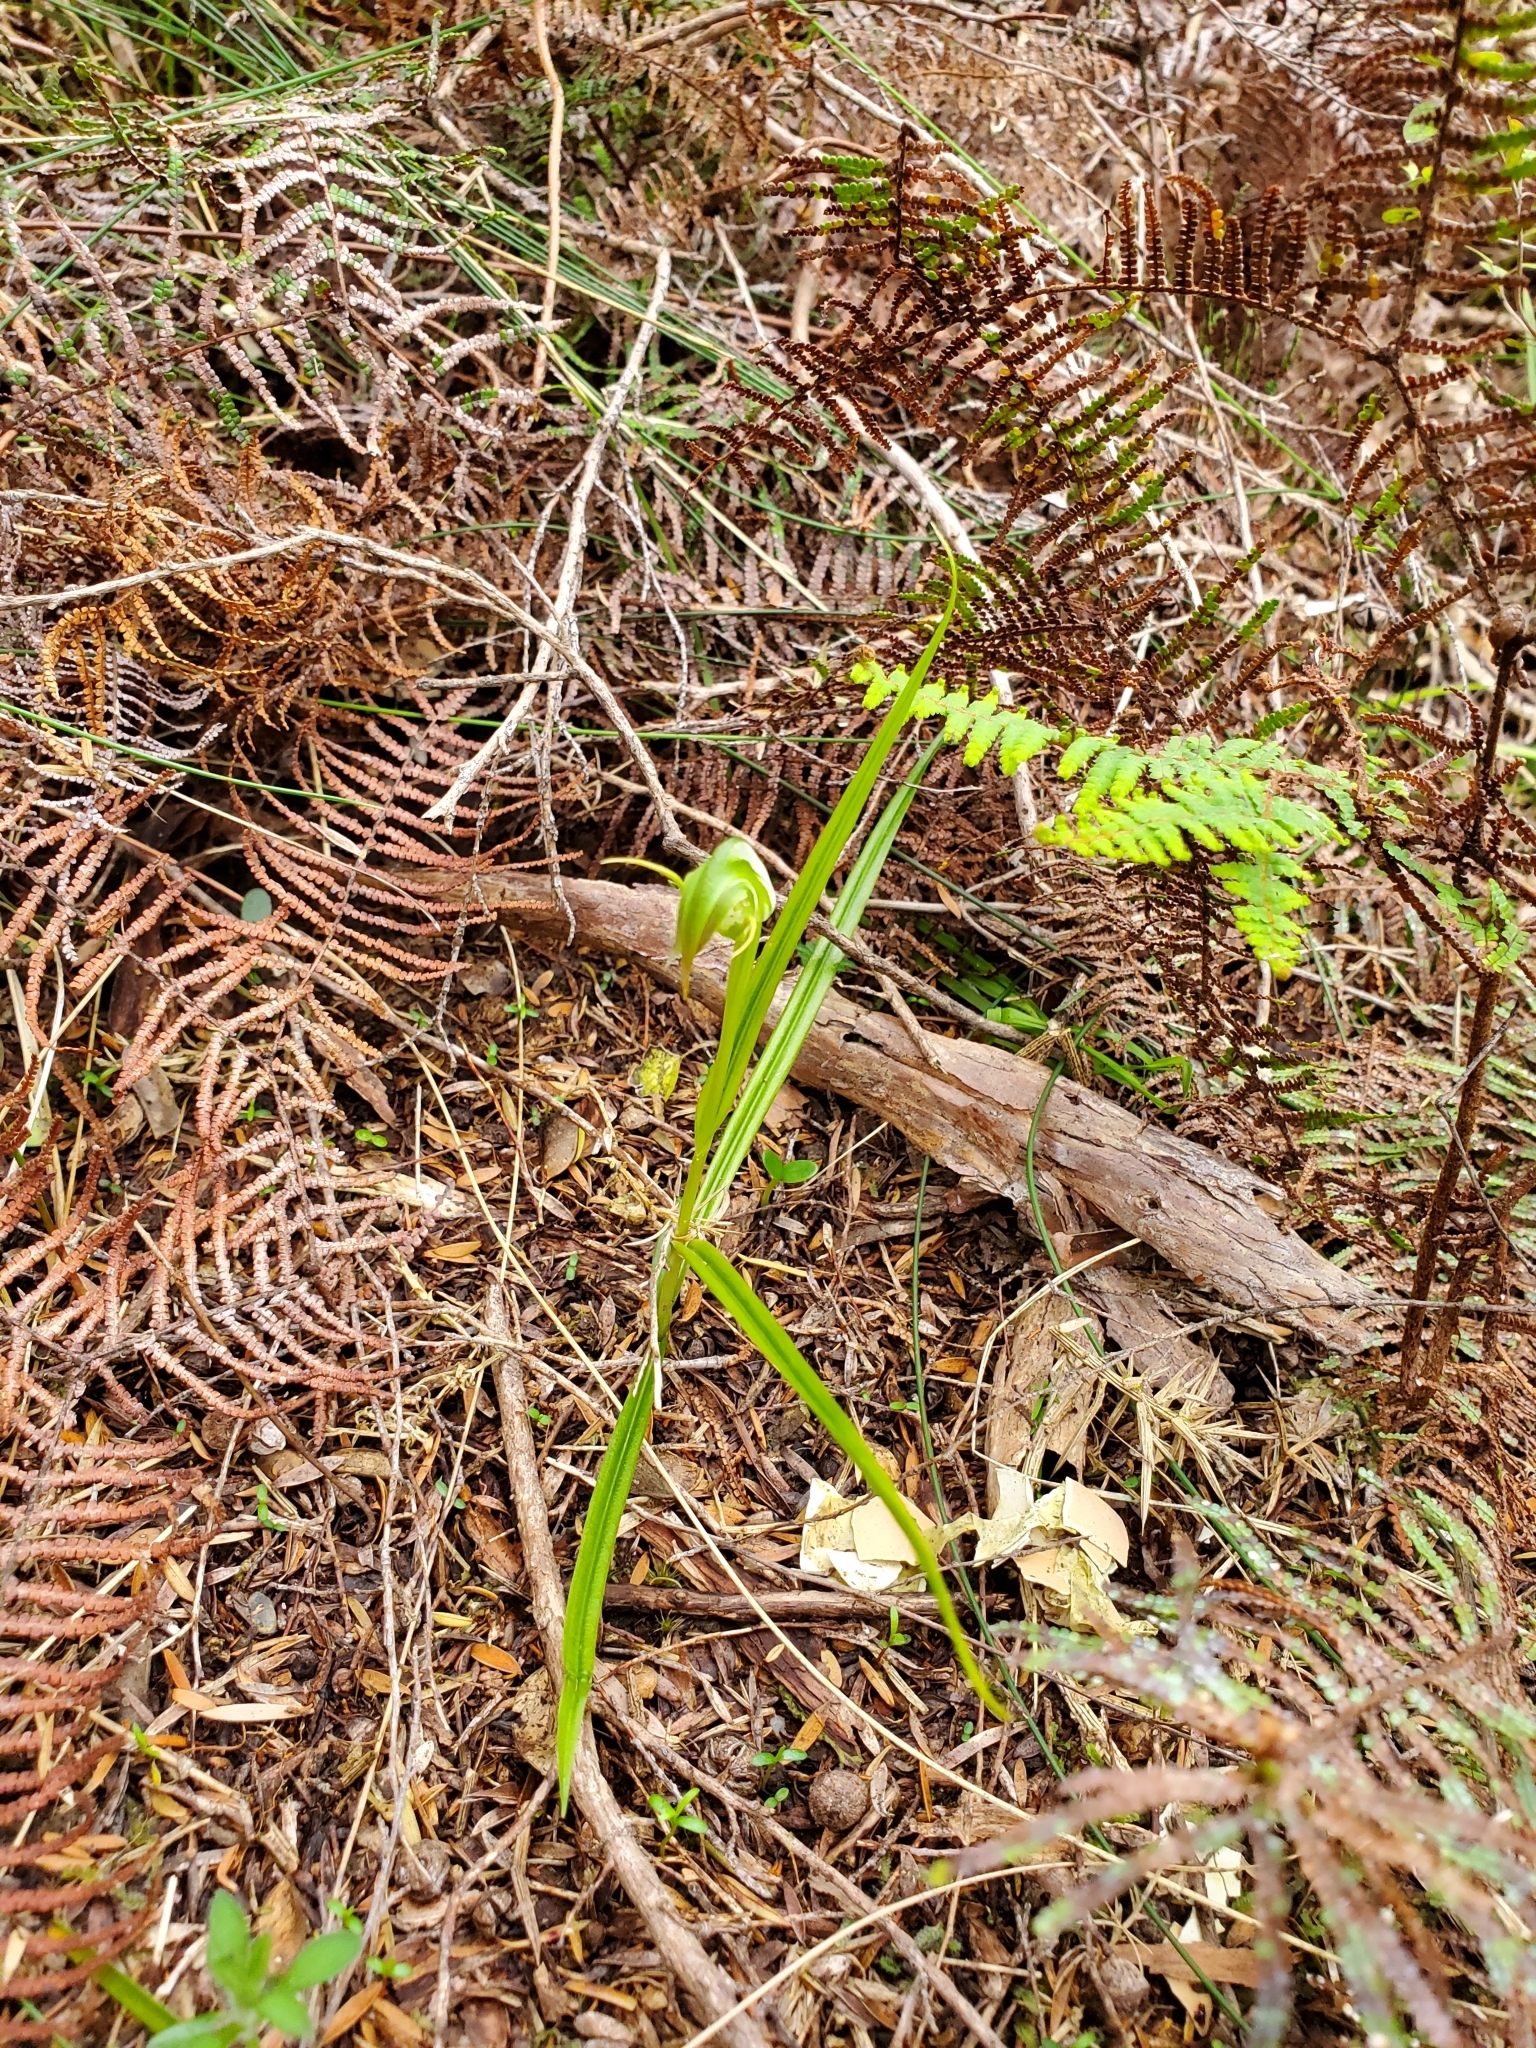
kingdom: Plantae
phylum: Tracheophyta
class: Liliopsida
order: Asparagales
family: Orchidaceae
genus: Pterostylis
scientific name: Pterostylis graminea
